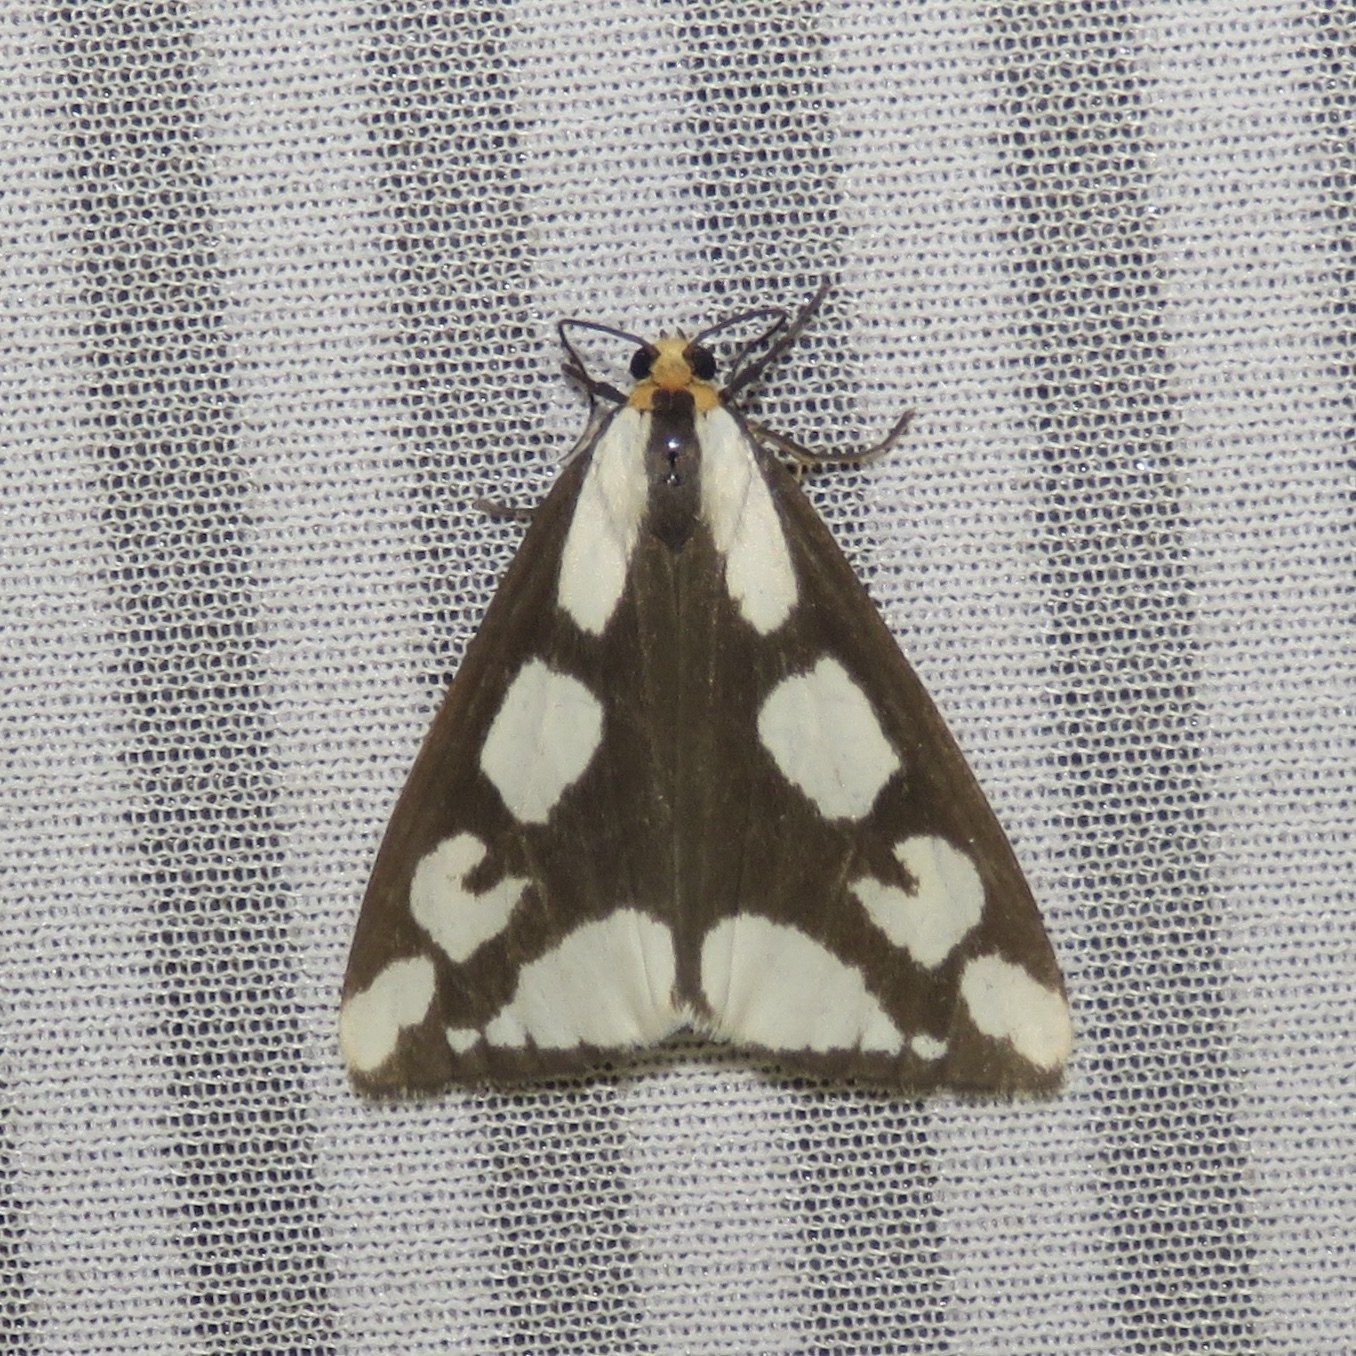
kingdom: Animalia
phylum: Arthropoda
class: Insecta
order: Lepidoptera
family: Erebidae
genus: Haploa
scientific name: Haploa lecontei
